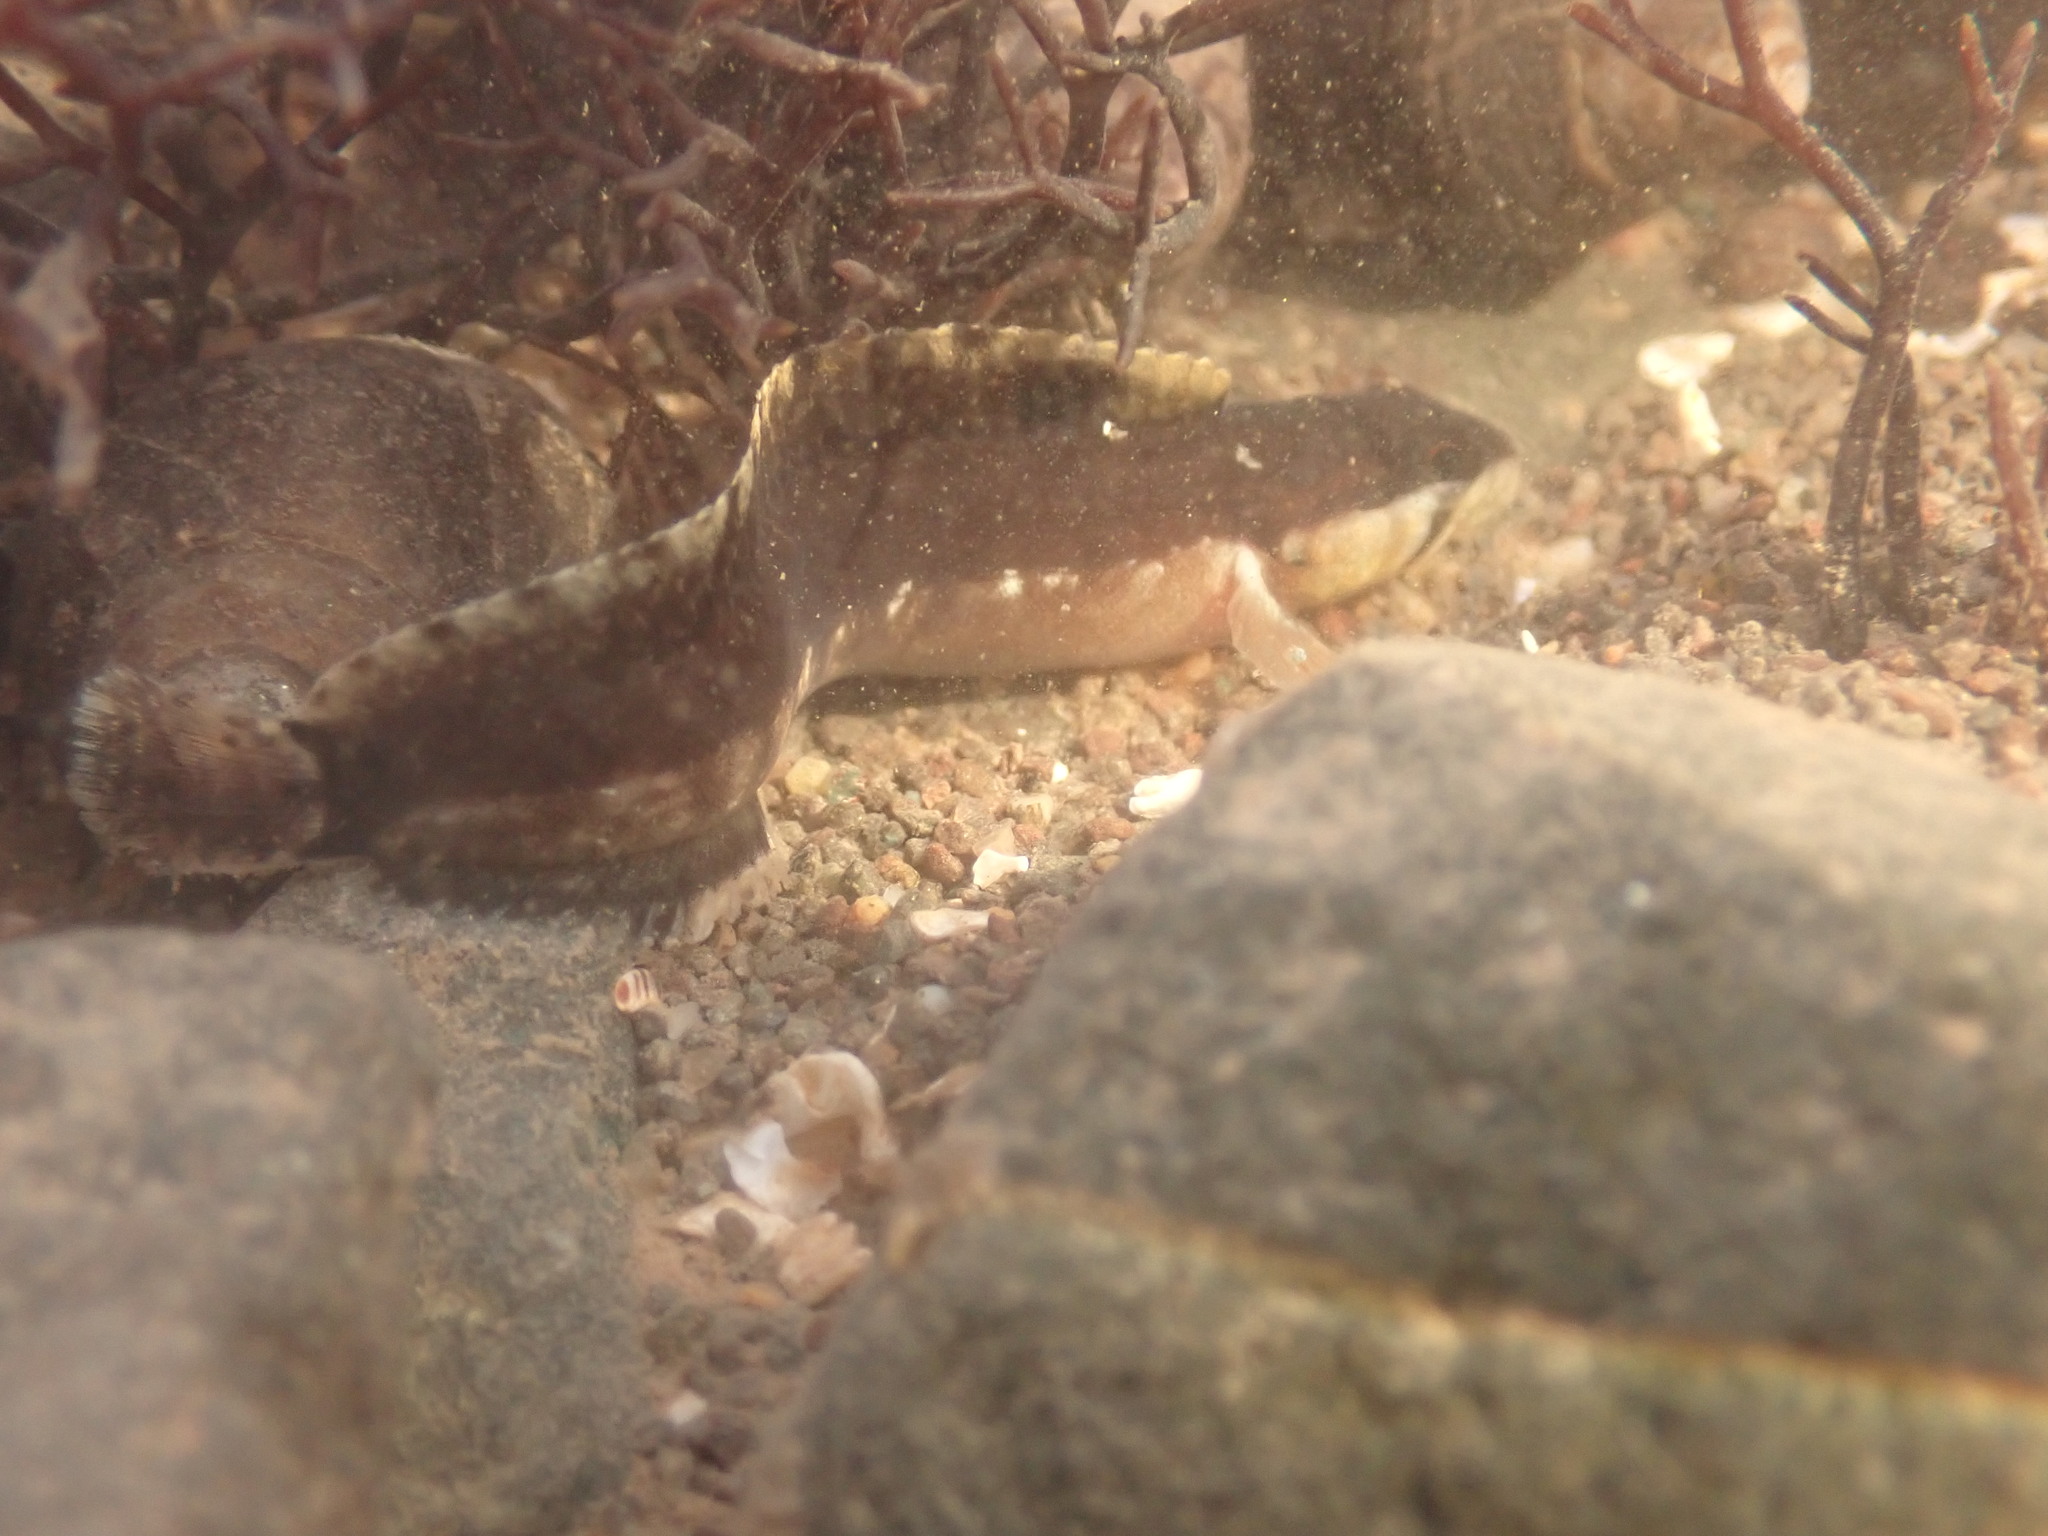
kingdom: Animalia
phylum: Chordata
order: Perciformes
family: Stichaeidae
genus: Ulvaria
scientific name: Ulvaria subbifurcata
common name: Radiated shanny
